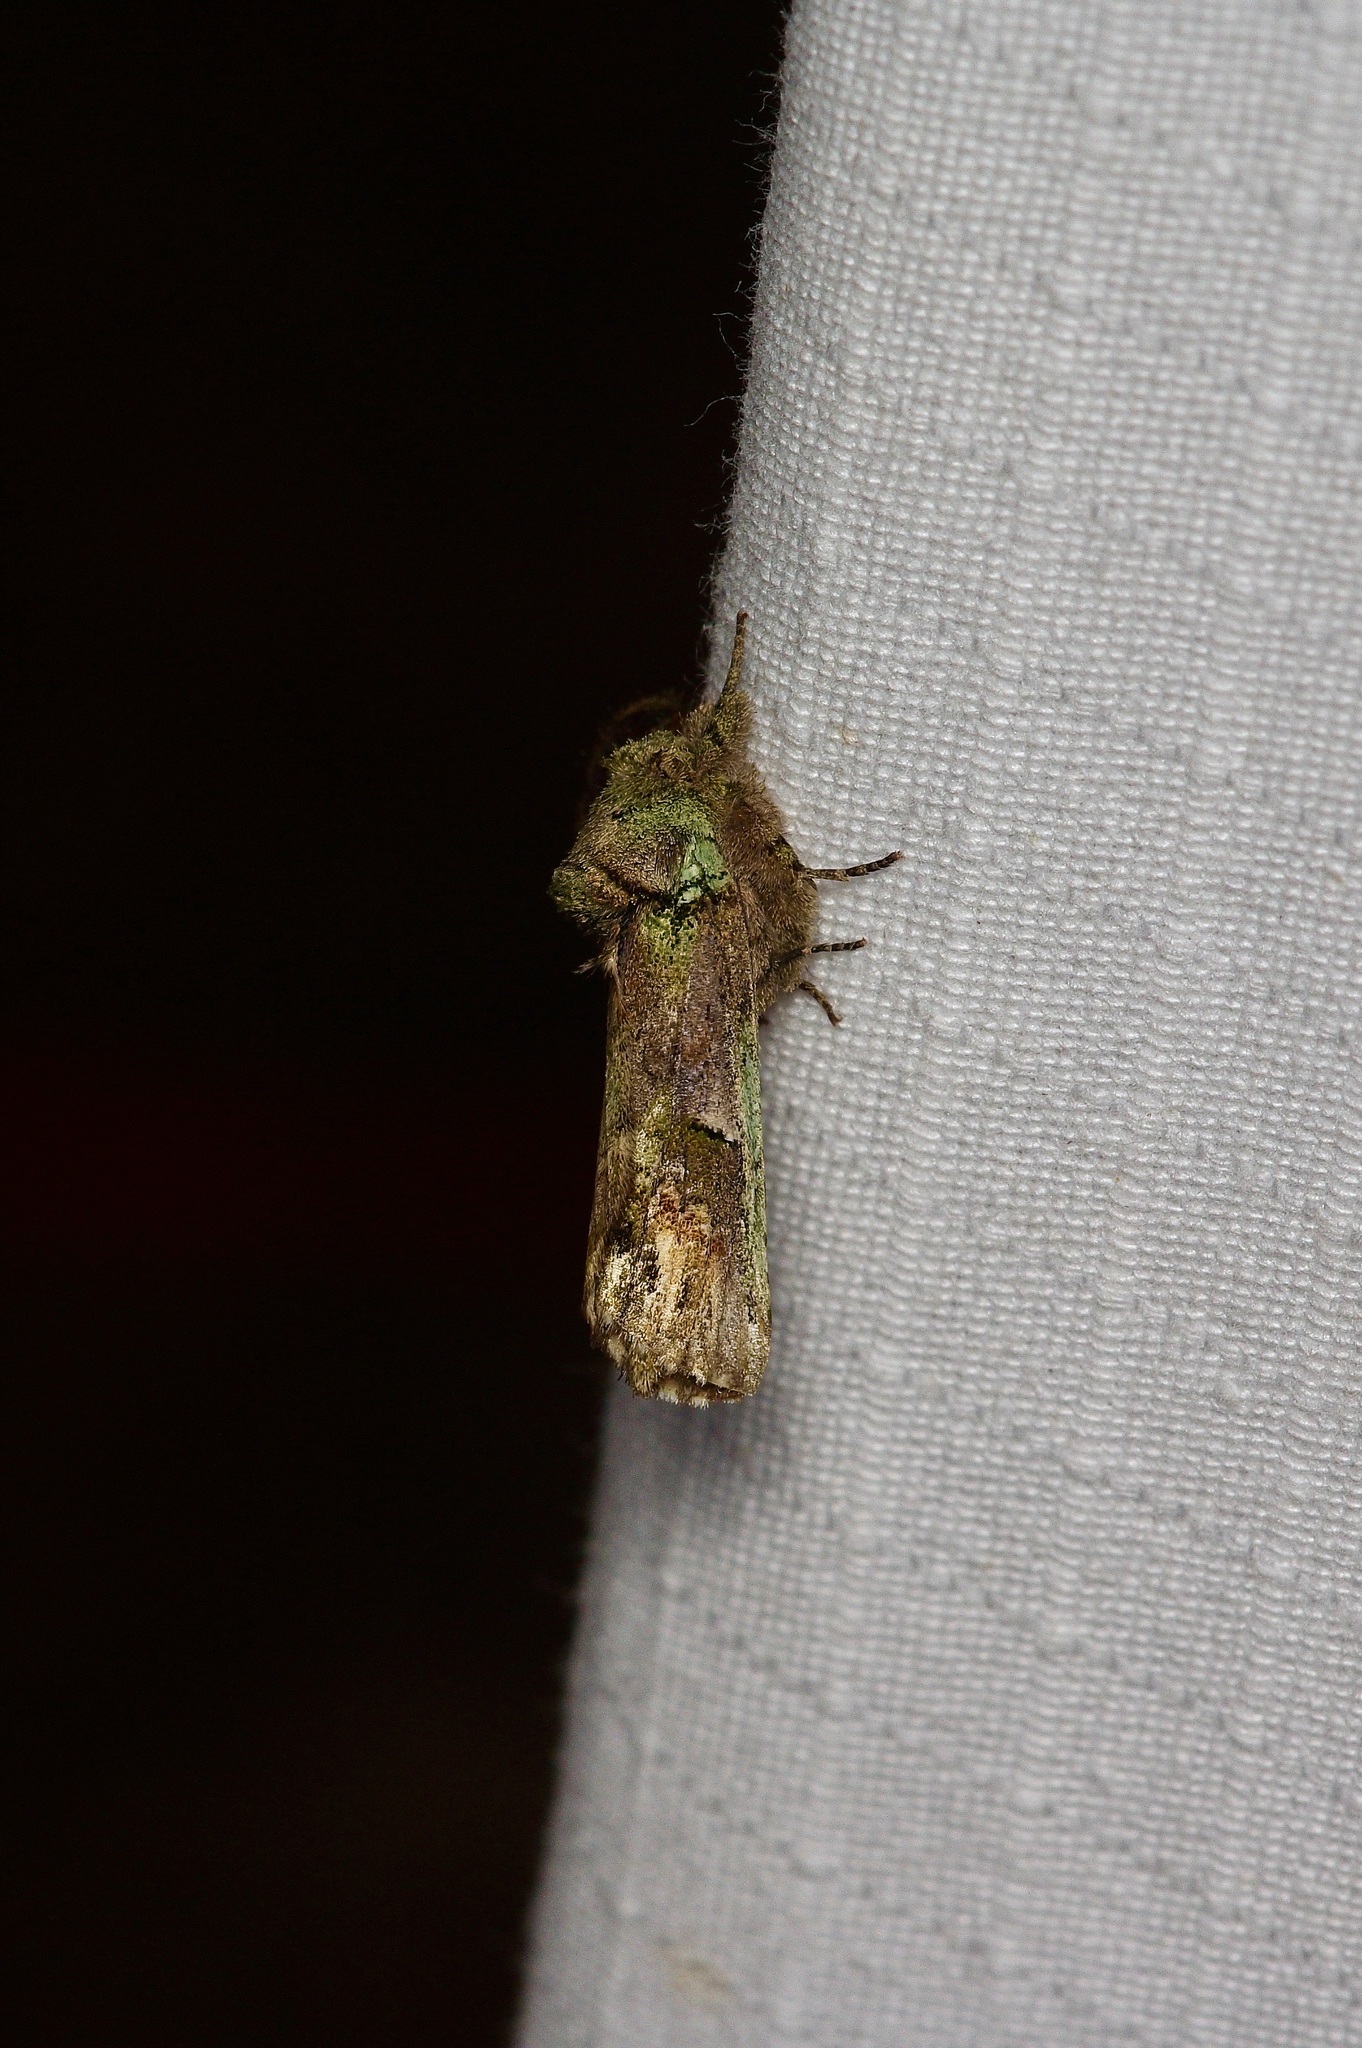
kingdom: Animalia
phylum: Arthropoda
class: Insecta
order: Lepidoptera
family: Notodontidae
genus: Schizura
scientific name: Schizura
